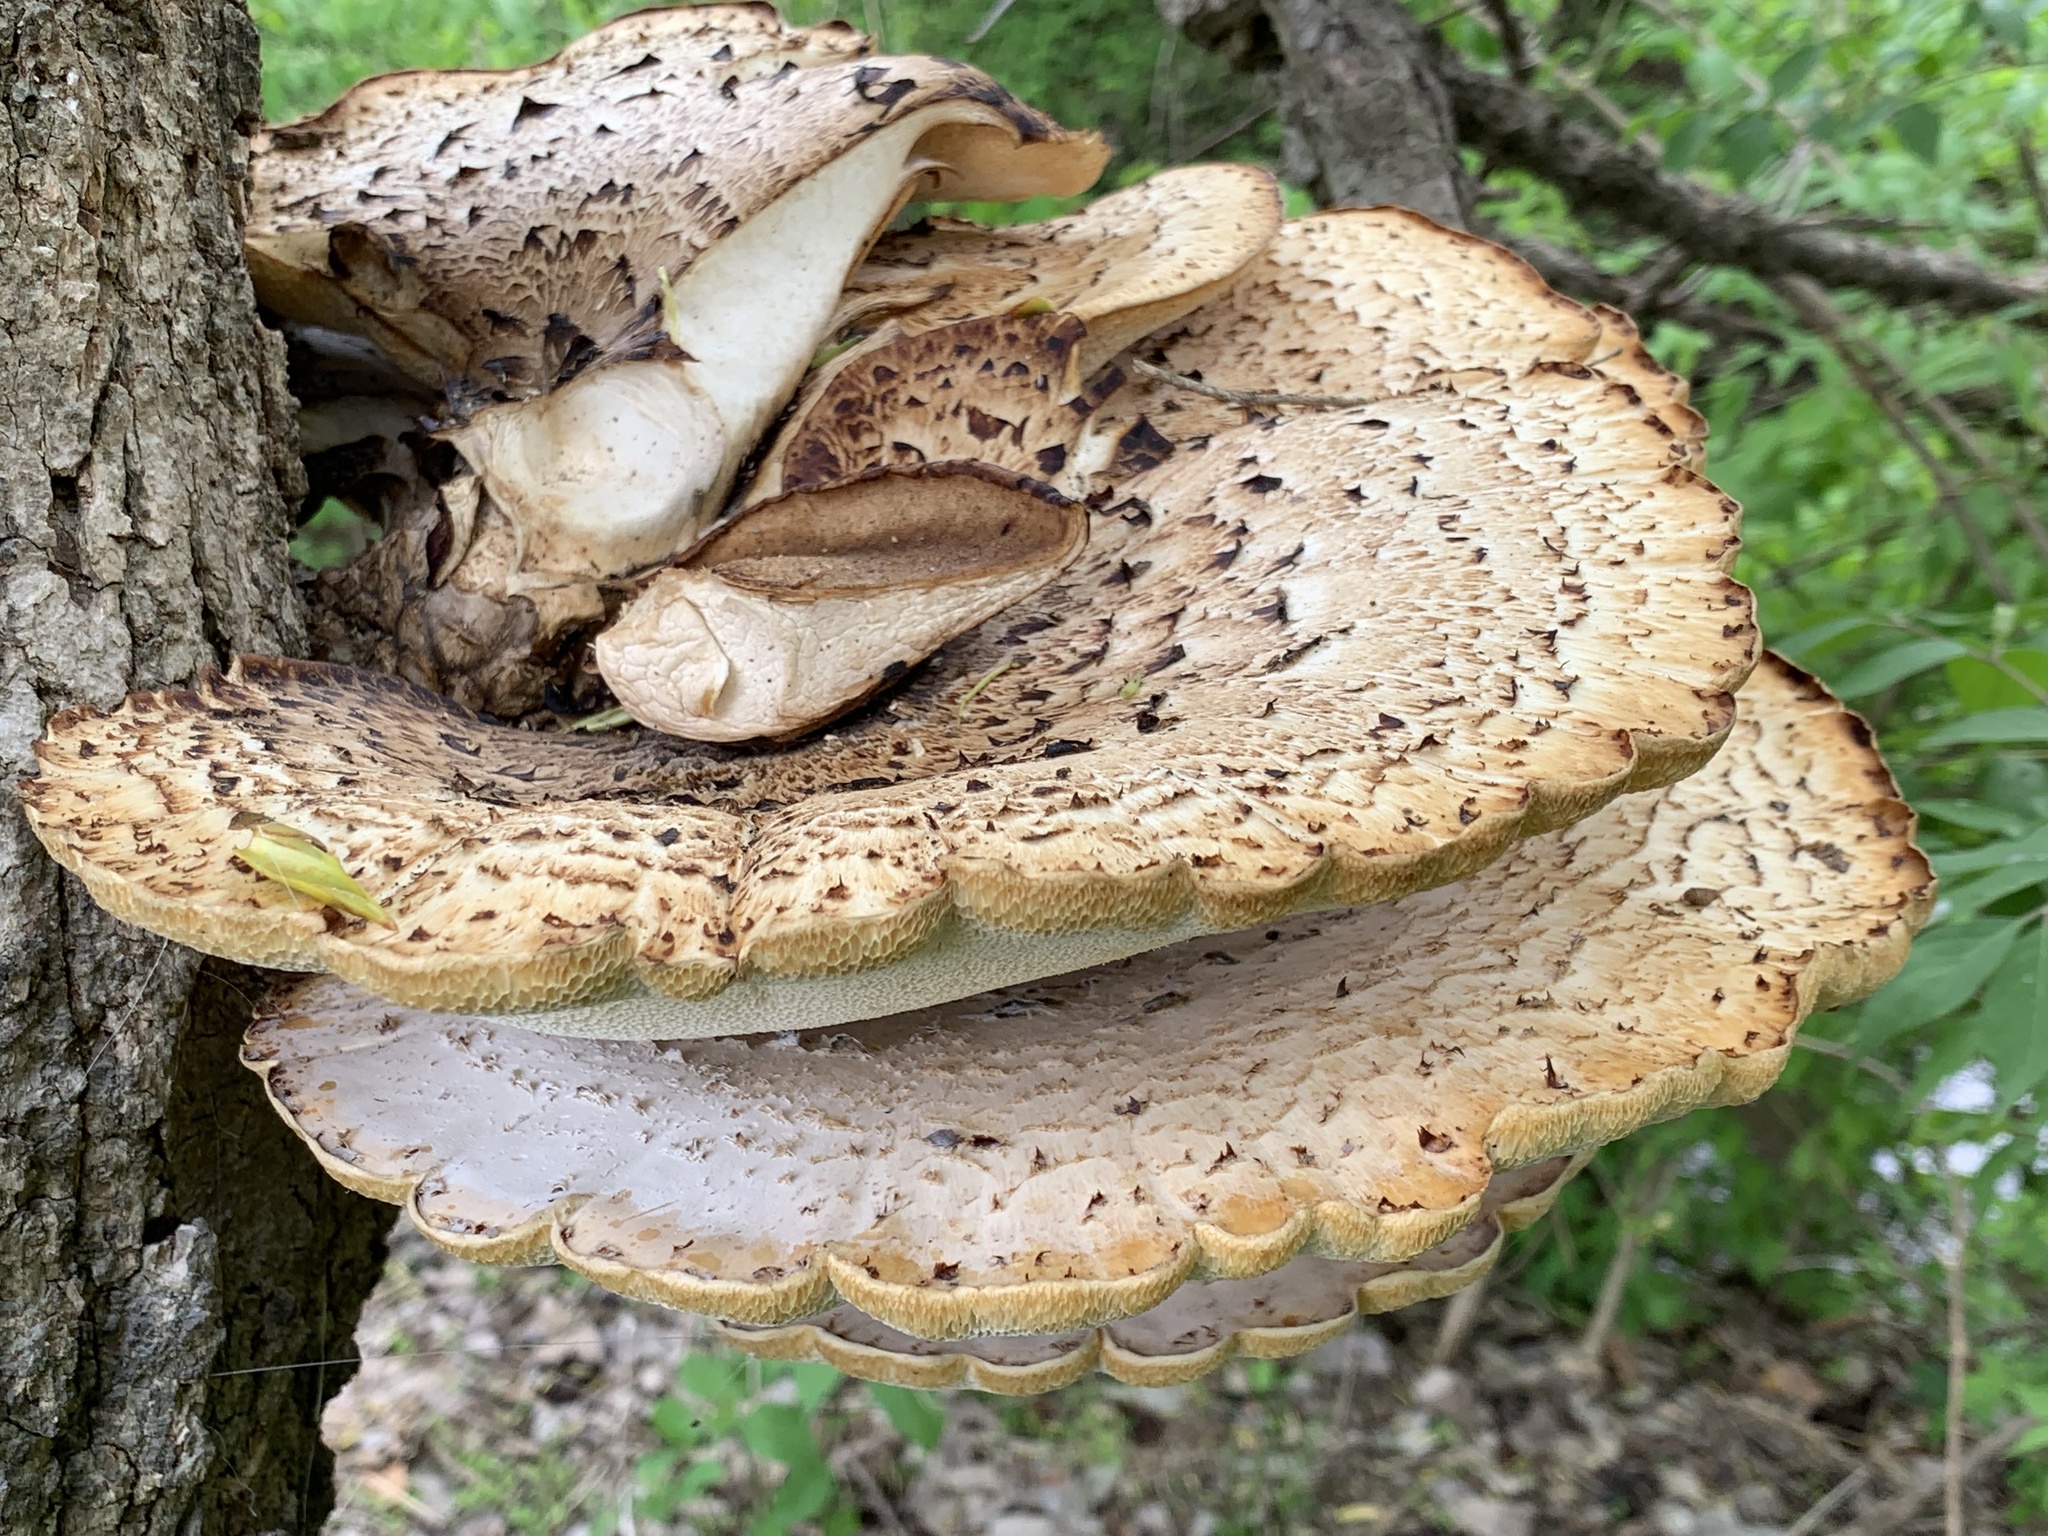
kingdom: Fungi
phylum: Basidiomycota
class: Agaricomycetes
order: Polyporales
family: Polyporaceae
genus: Cerioporus
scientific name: Cerioporus squamosus
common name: Dryad's saddle
